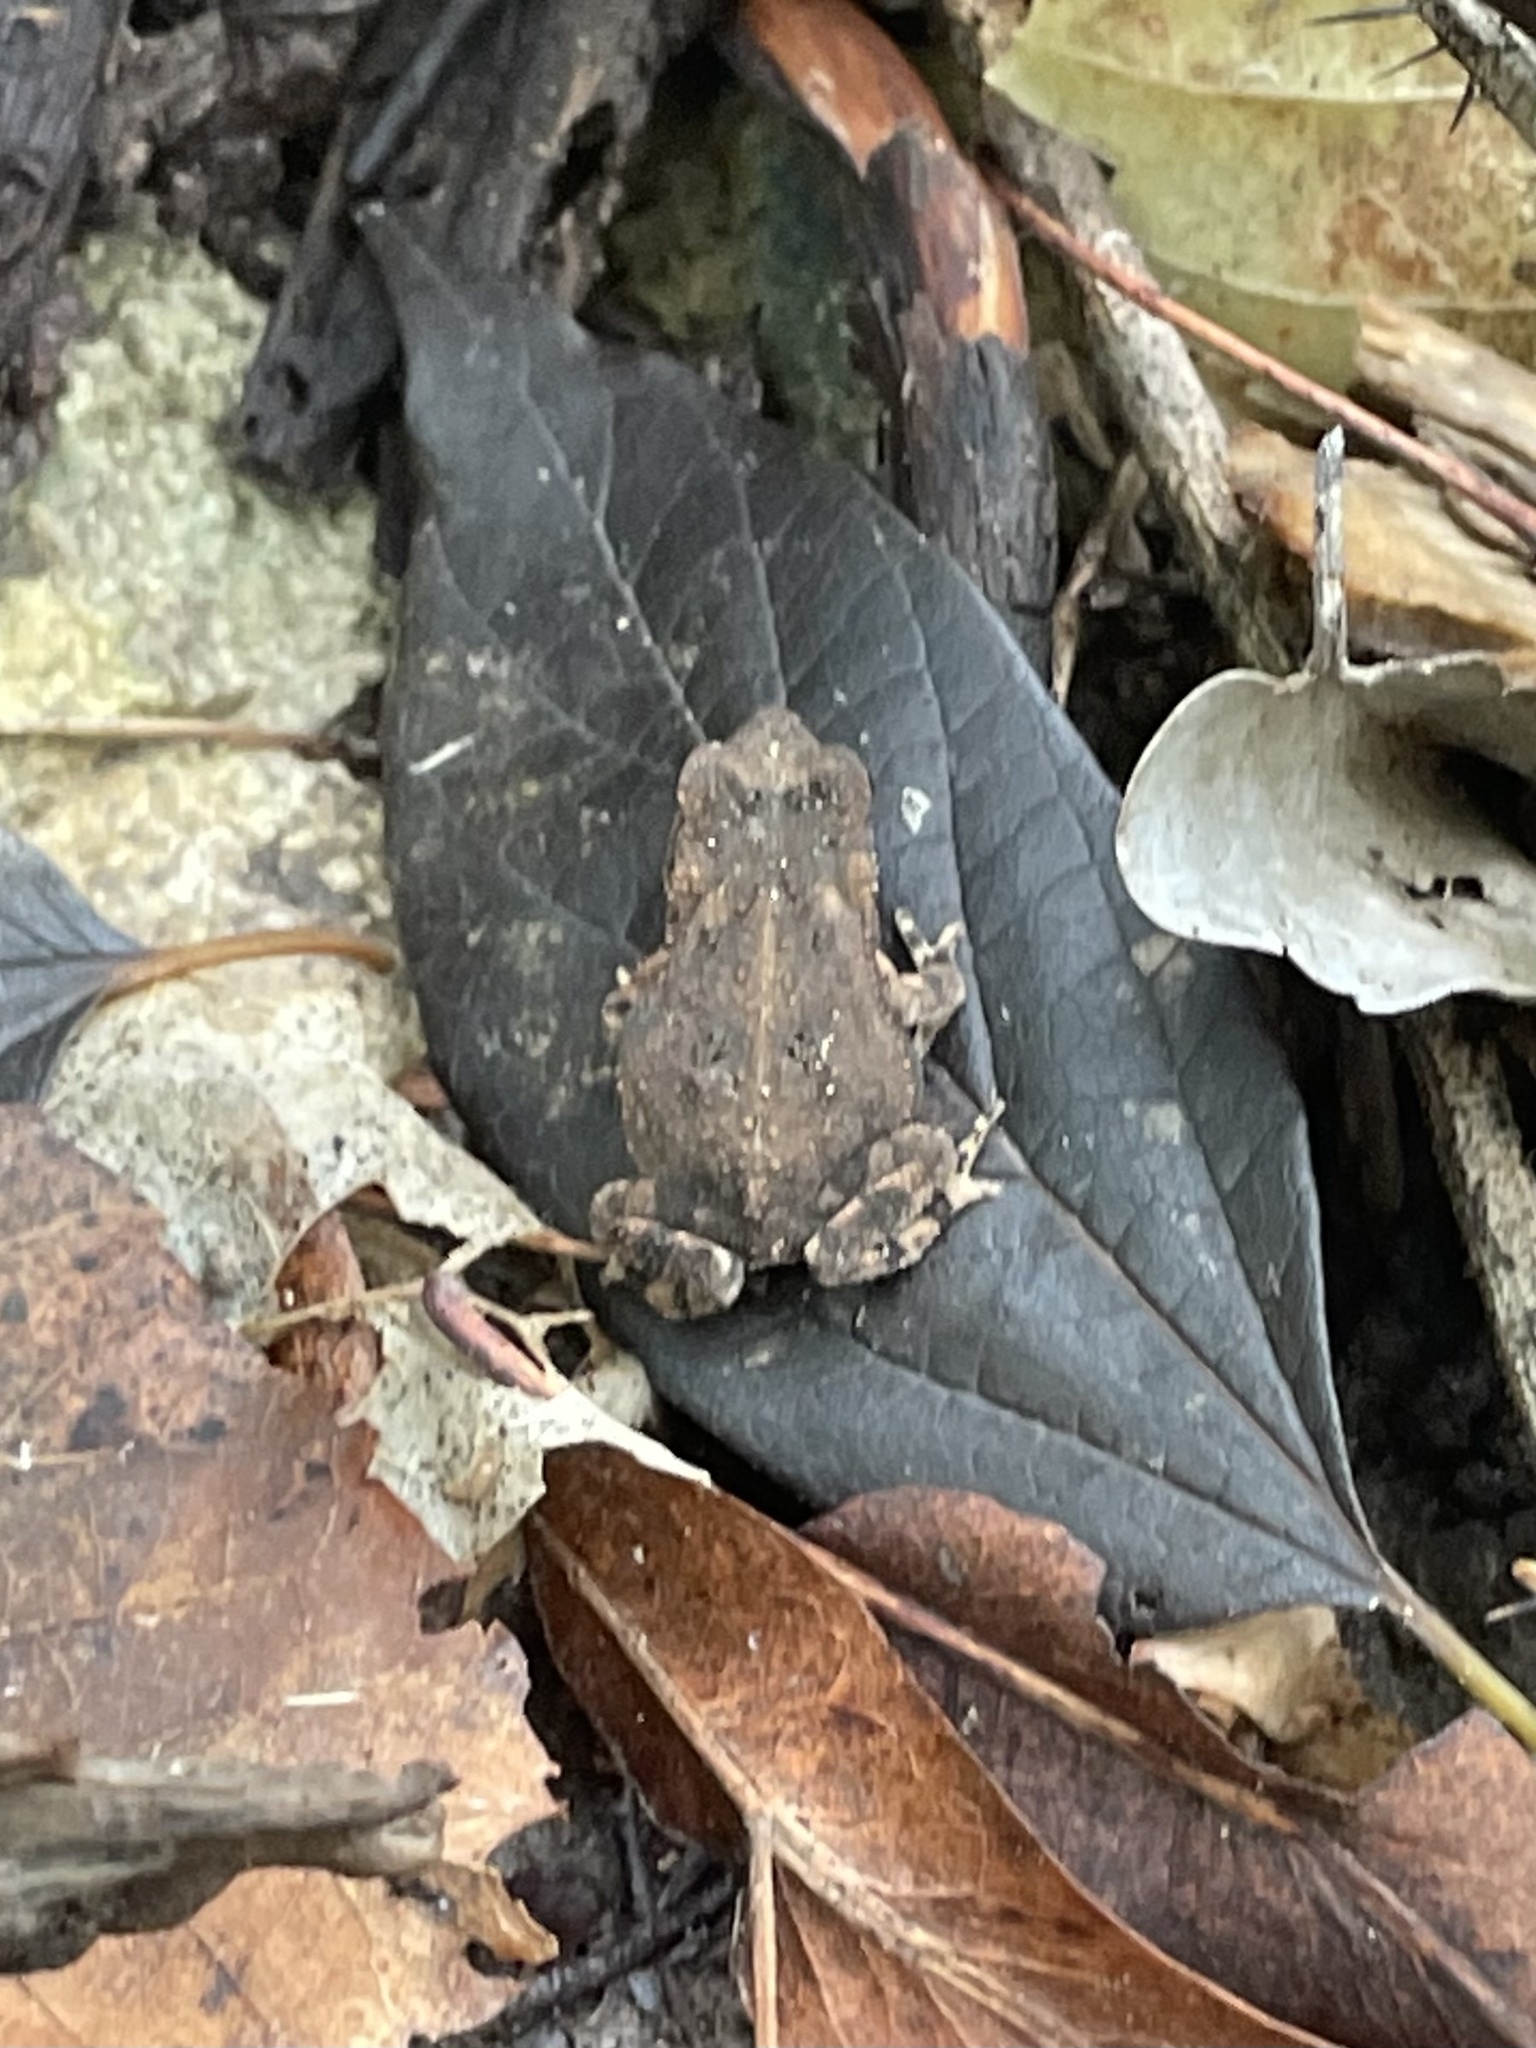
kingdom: Animalia
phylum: Chordata
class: Amphibia
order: Anura
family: Bufonidae
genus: Incilius
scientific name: Incilius nebulifer
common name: Gulf coast toad
